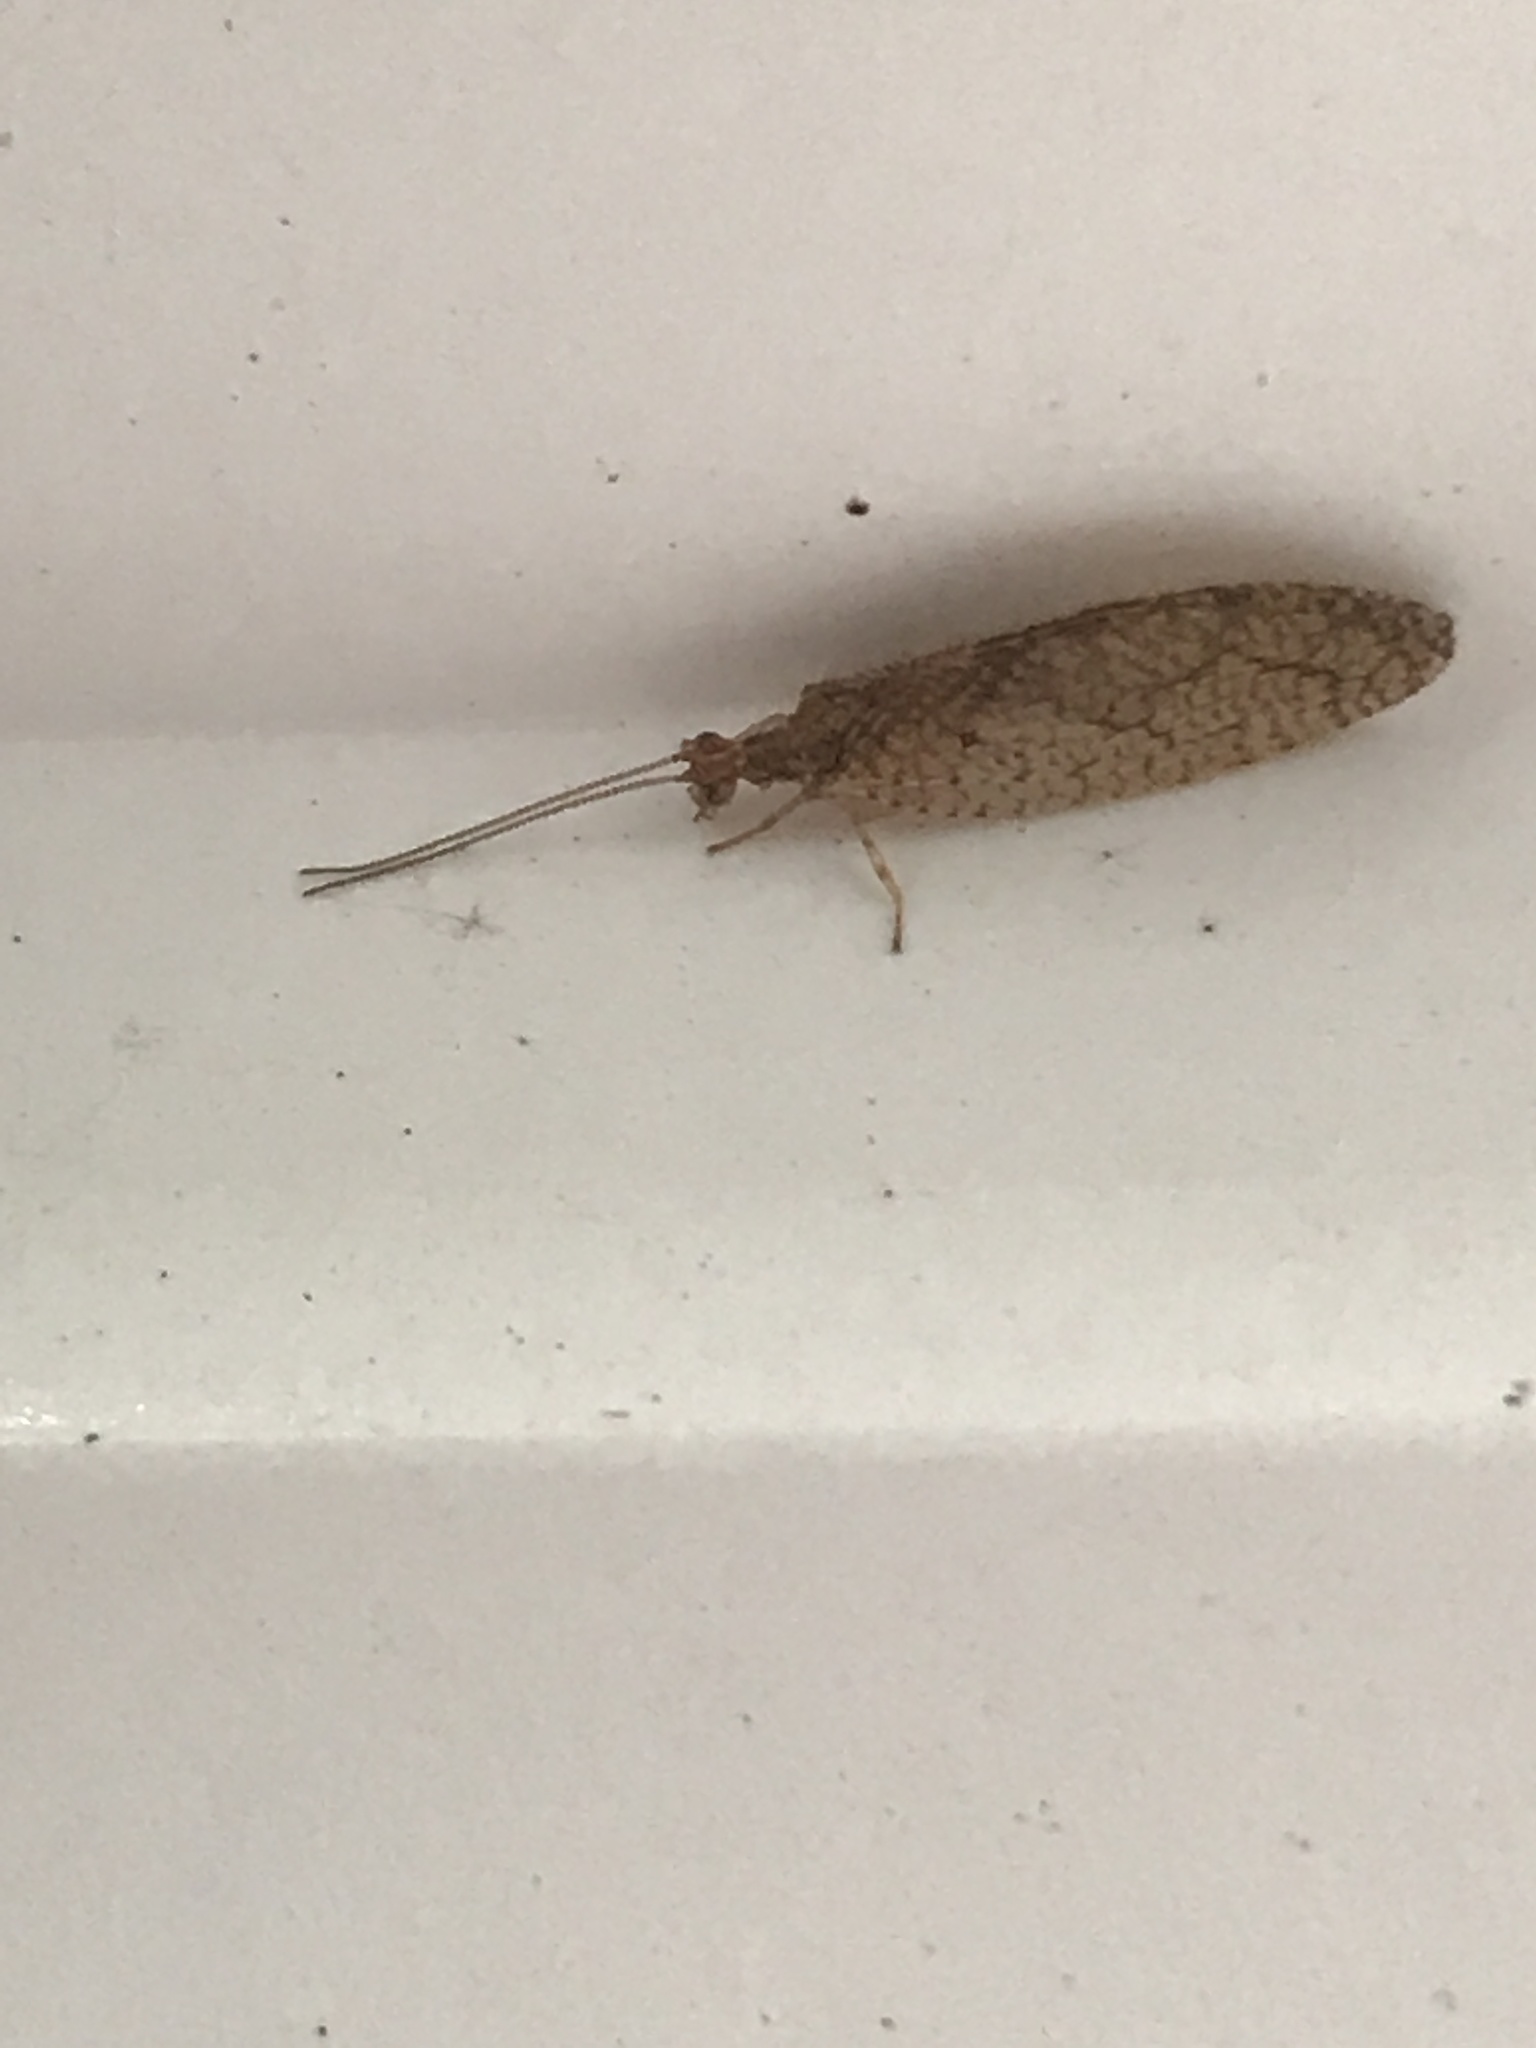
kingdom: Animalia
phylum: Arthropoda
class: Insecta
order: Neuroptera
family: Hemerobiidae
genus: Micromus
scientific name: Micromus posticus
